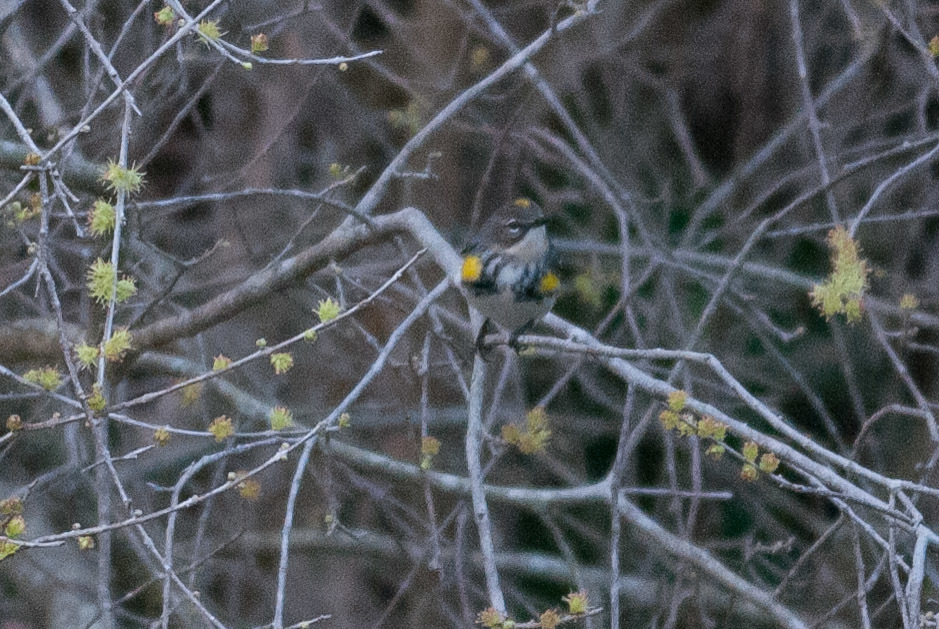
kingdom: Animalia
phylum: Chordata
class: Aves
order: Passeriformes
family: Parulidae
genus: Setophaga
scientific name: Setophaga coronata
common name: Myrtle warbler
